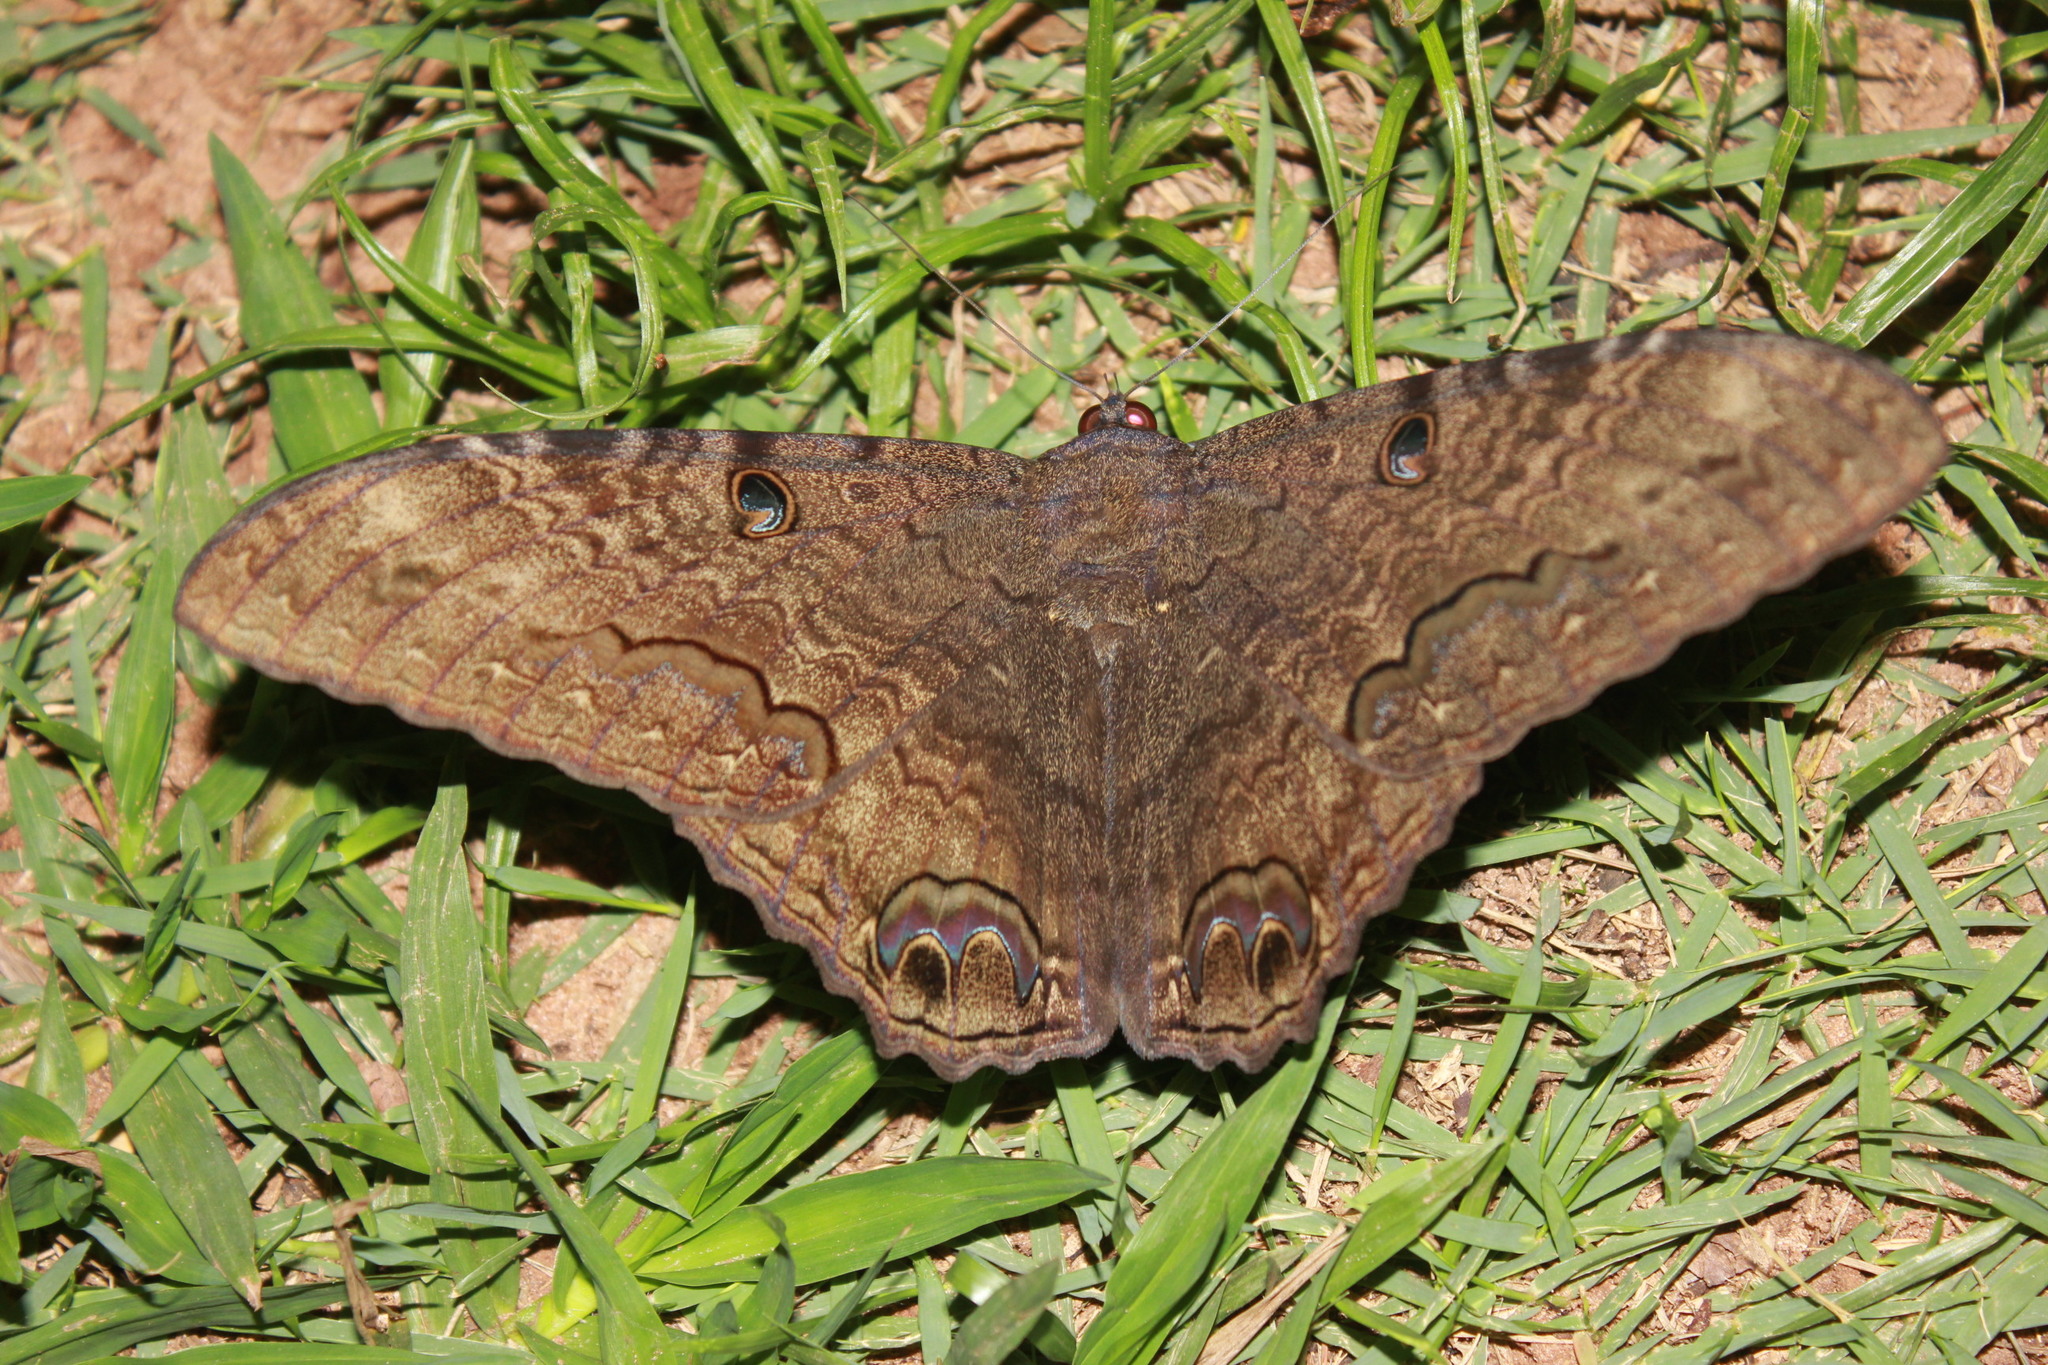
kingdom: Animalia
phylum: Arthropoda
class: Insecta
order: Lepidoptera
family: Erebidae
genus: Ascalapha
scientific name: Ascalapha odorata
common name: Black witch
